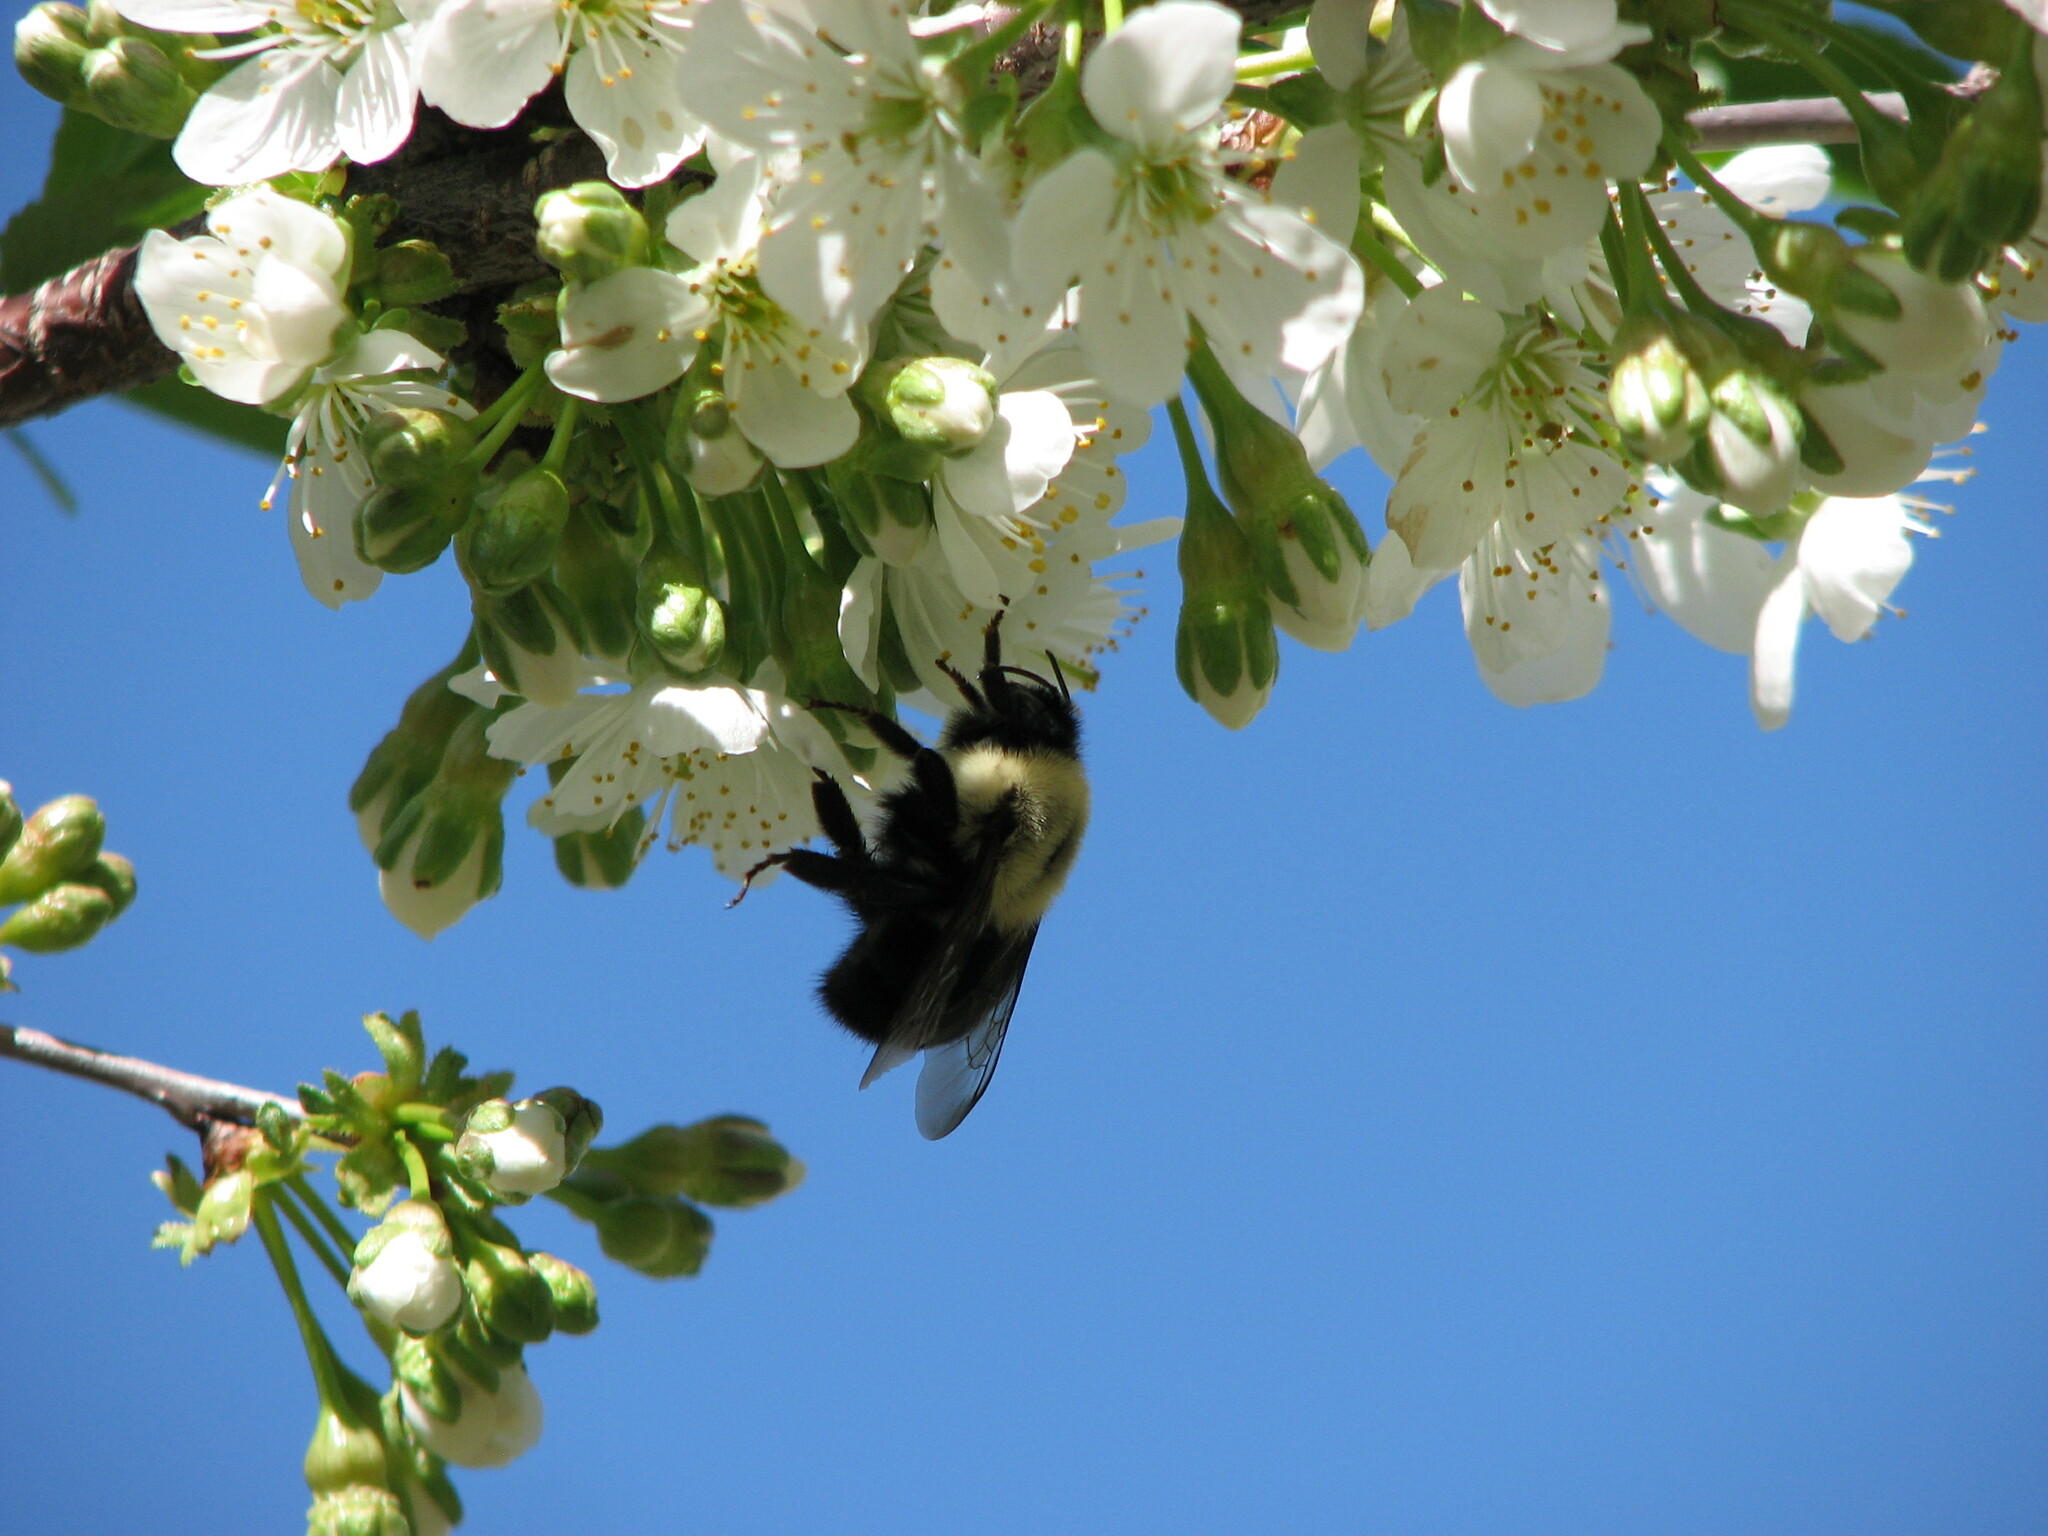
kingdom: Animalia
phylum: Arthropoda
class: Insecta
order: Hymenoptera
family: Apidae
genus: Bombus
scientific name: Bombus impatiens
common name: Common eastern bumble bee
